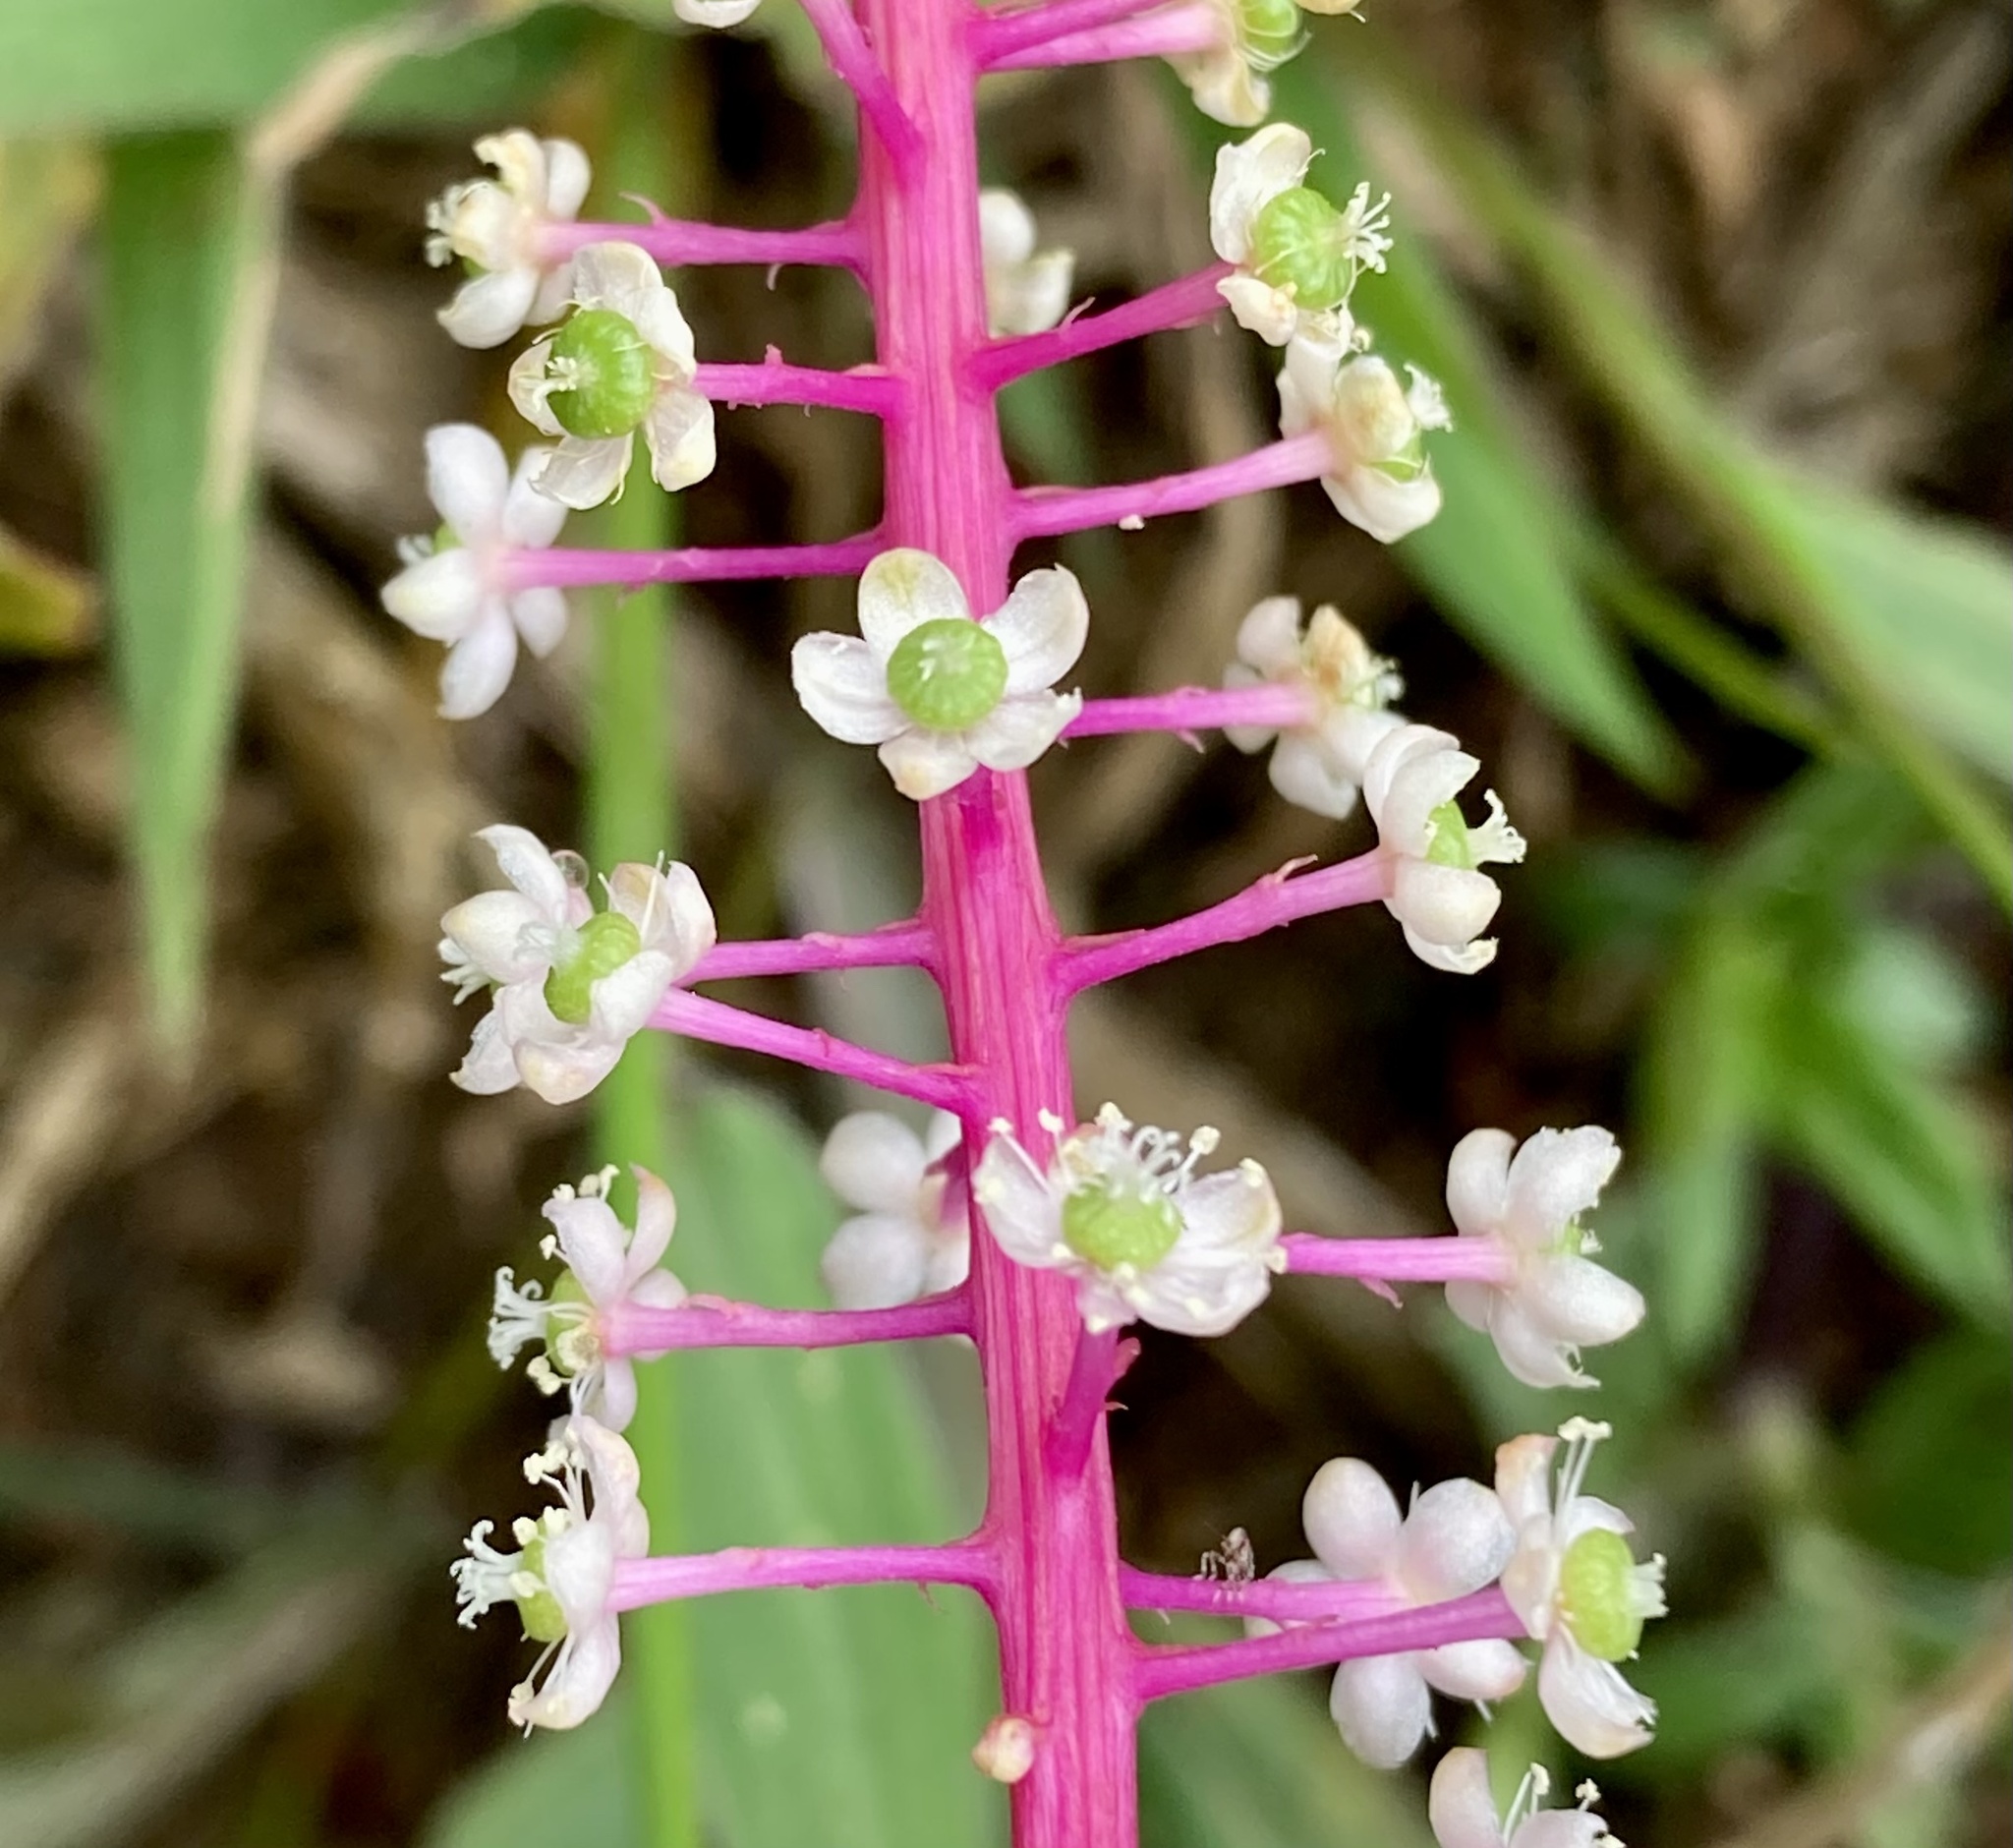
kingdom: Plantae
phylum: Tracheophyta
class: Magnoliopsida
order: Caryophyllales
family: Phytolaccaceae
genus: Phytolacca
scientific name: Phytolacca rivinoides
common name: Venezuelan pokeweed
